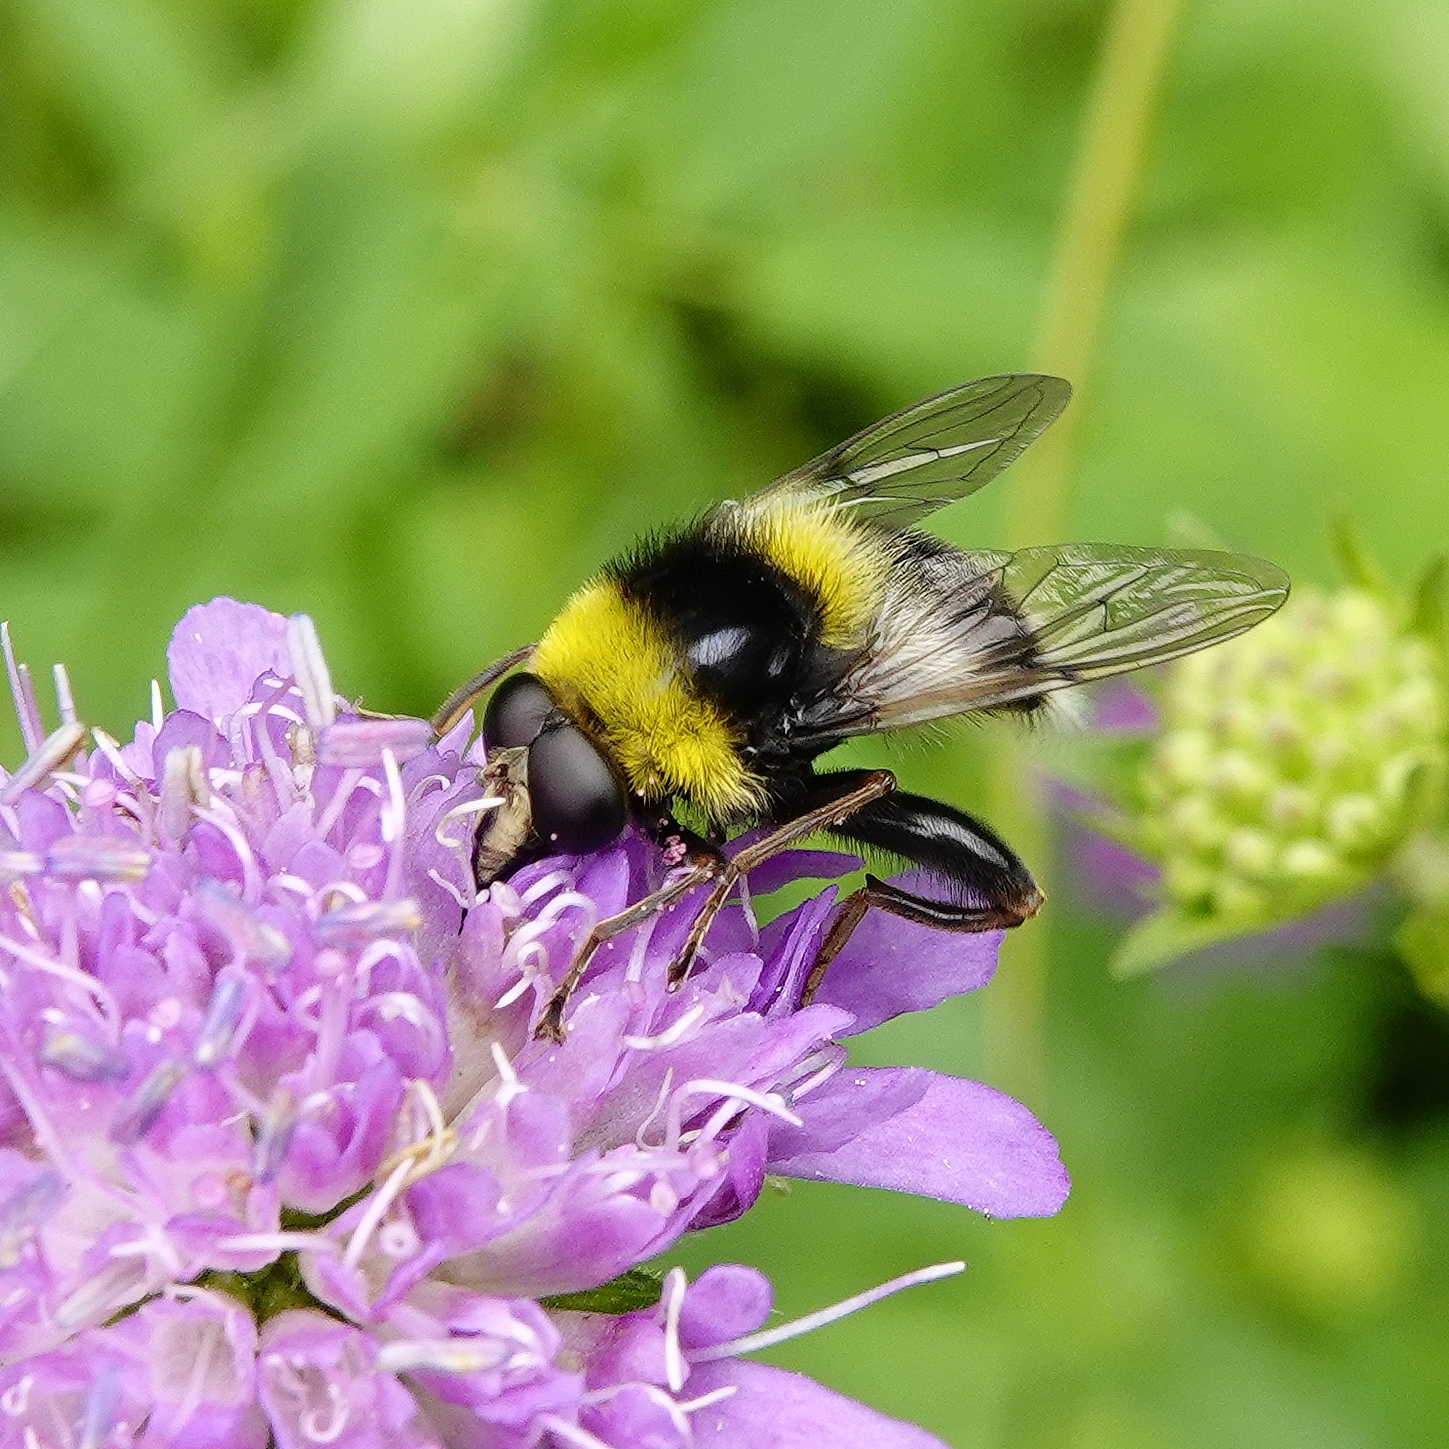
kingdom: Animalia
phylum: Arthropoda
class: Insecta
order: Diptera
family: Syrphidae
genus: Sericomyia
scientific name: Sericomyia bombiformis
